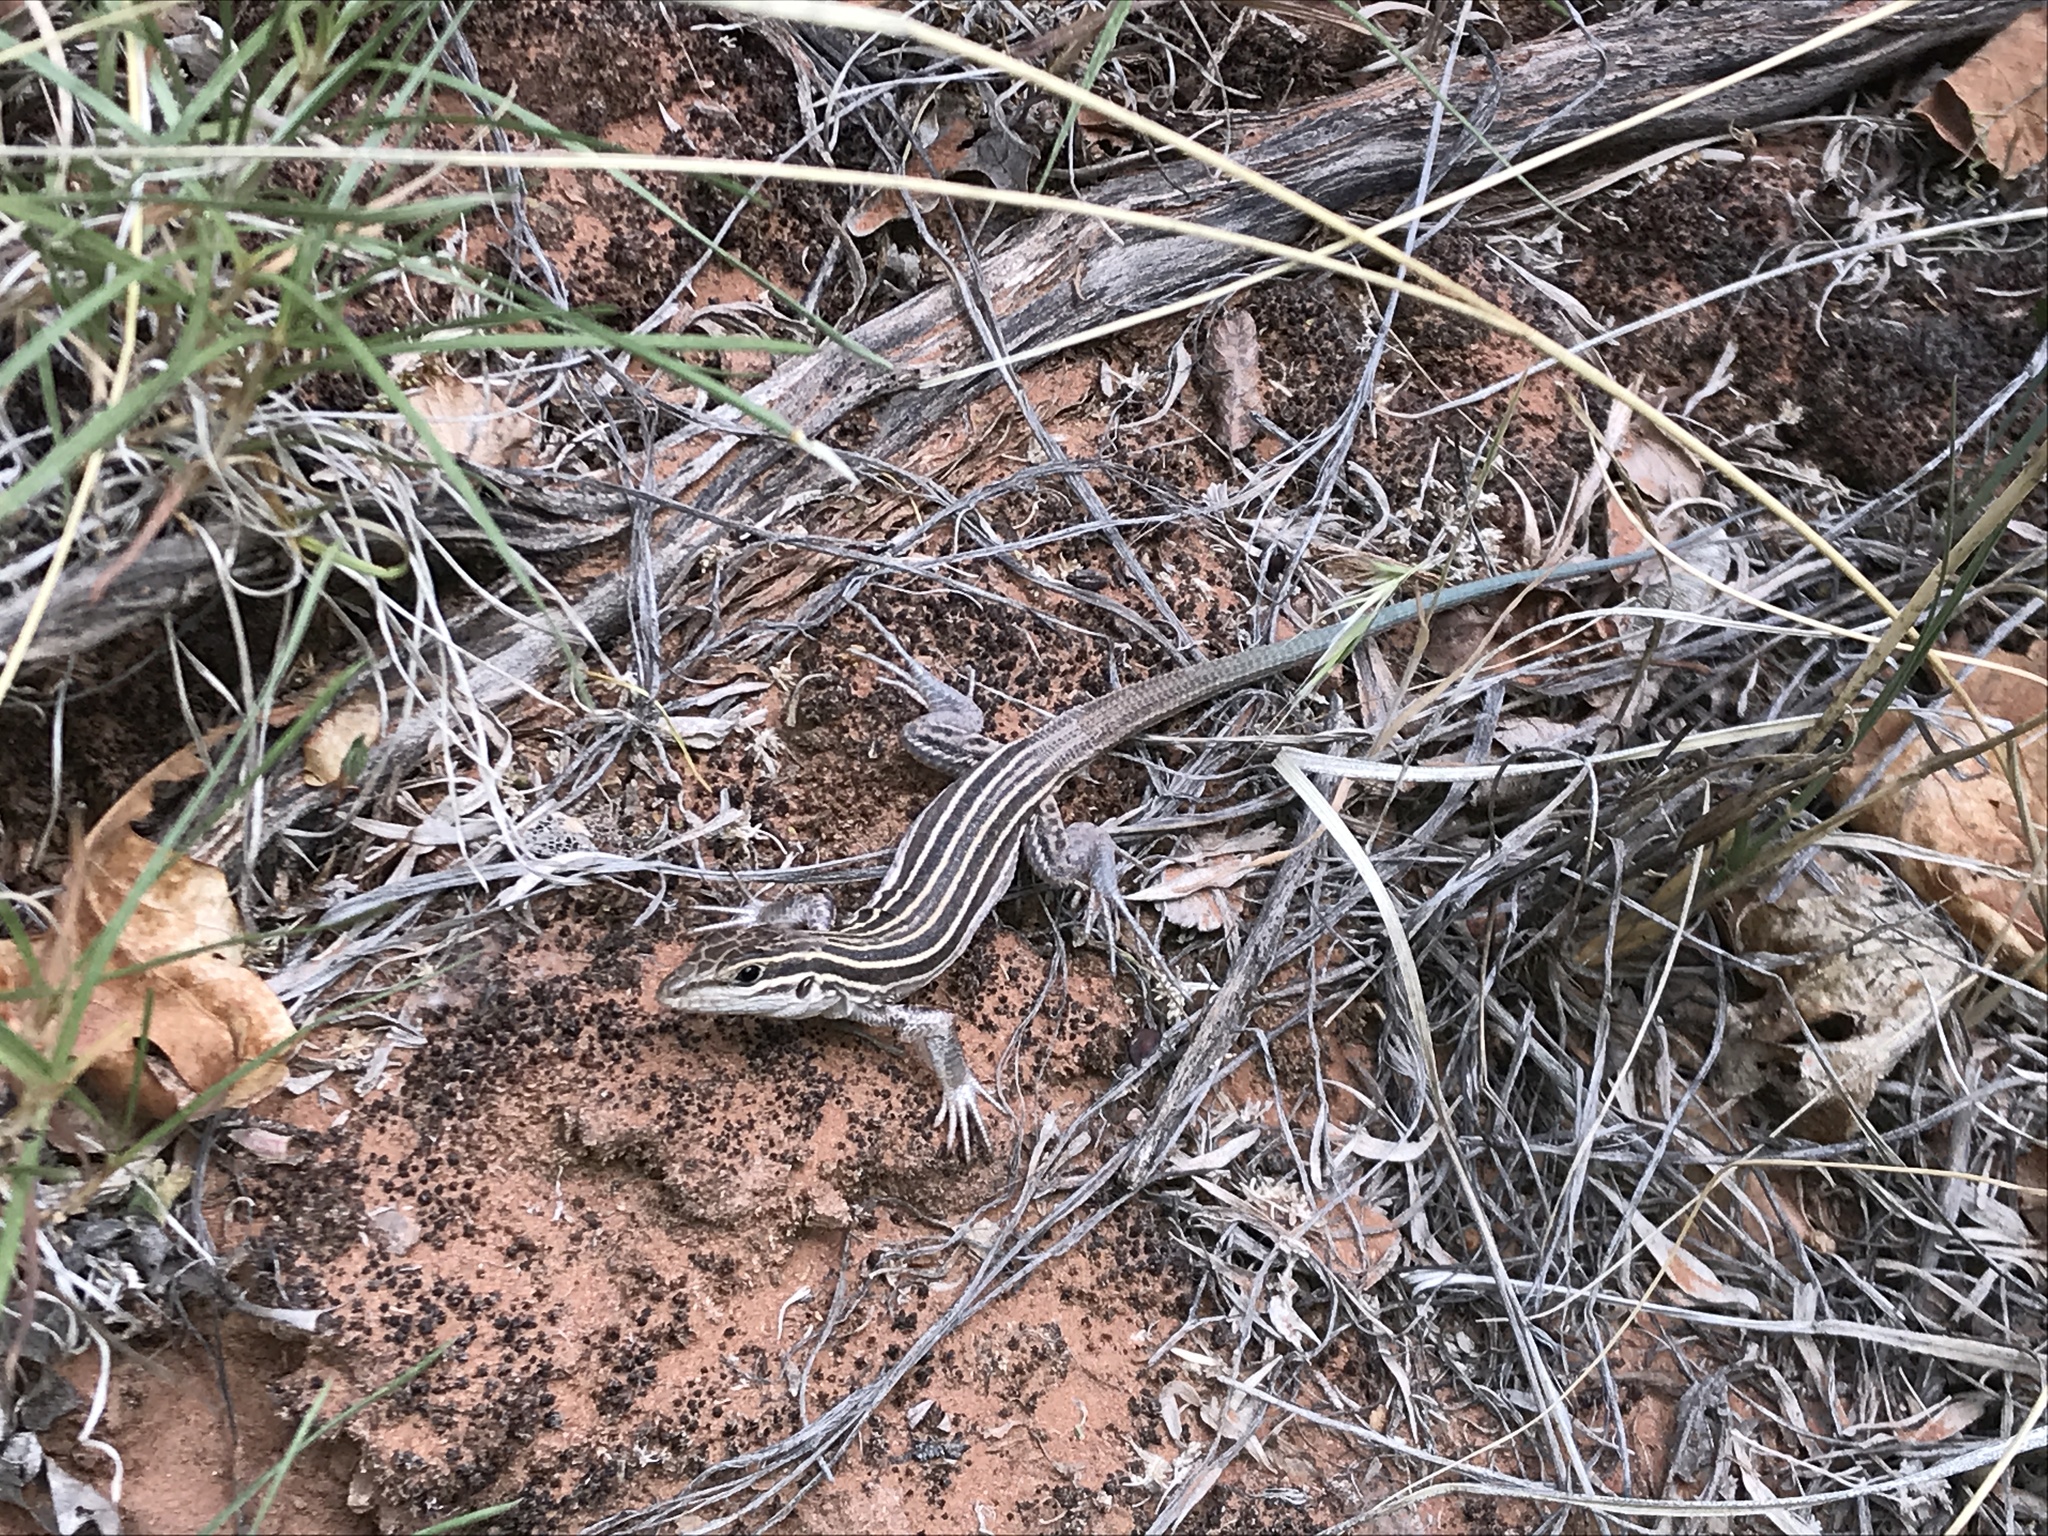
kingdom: Animalia
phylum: Chordata
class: Squamata
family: Teiidae
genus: Aspidoscelis
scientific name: Aspidoscelis velox
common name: Plateau striped whiptail
